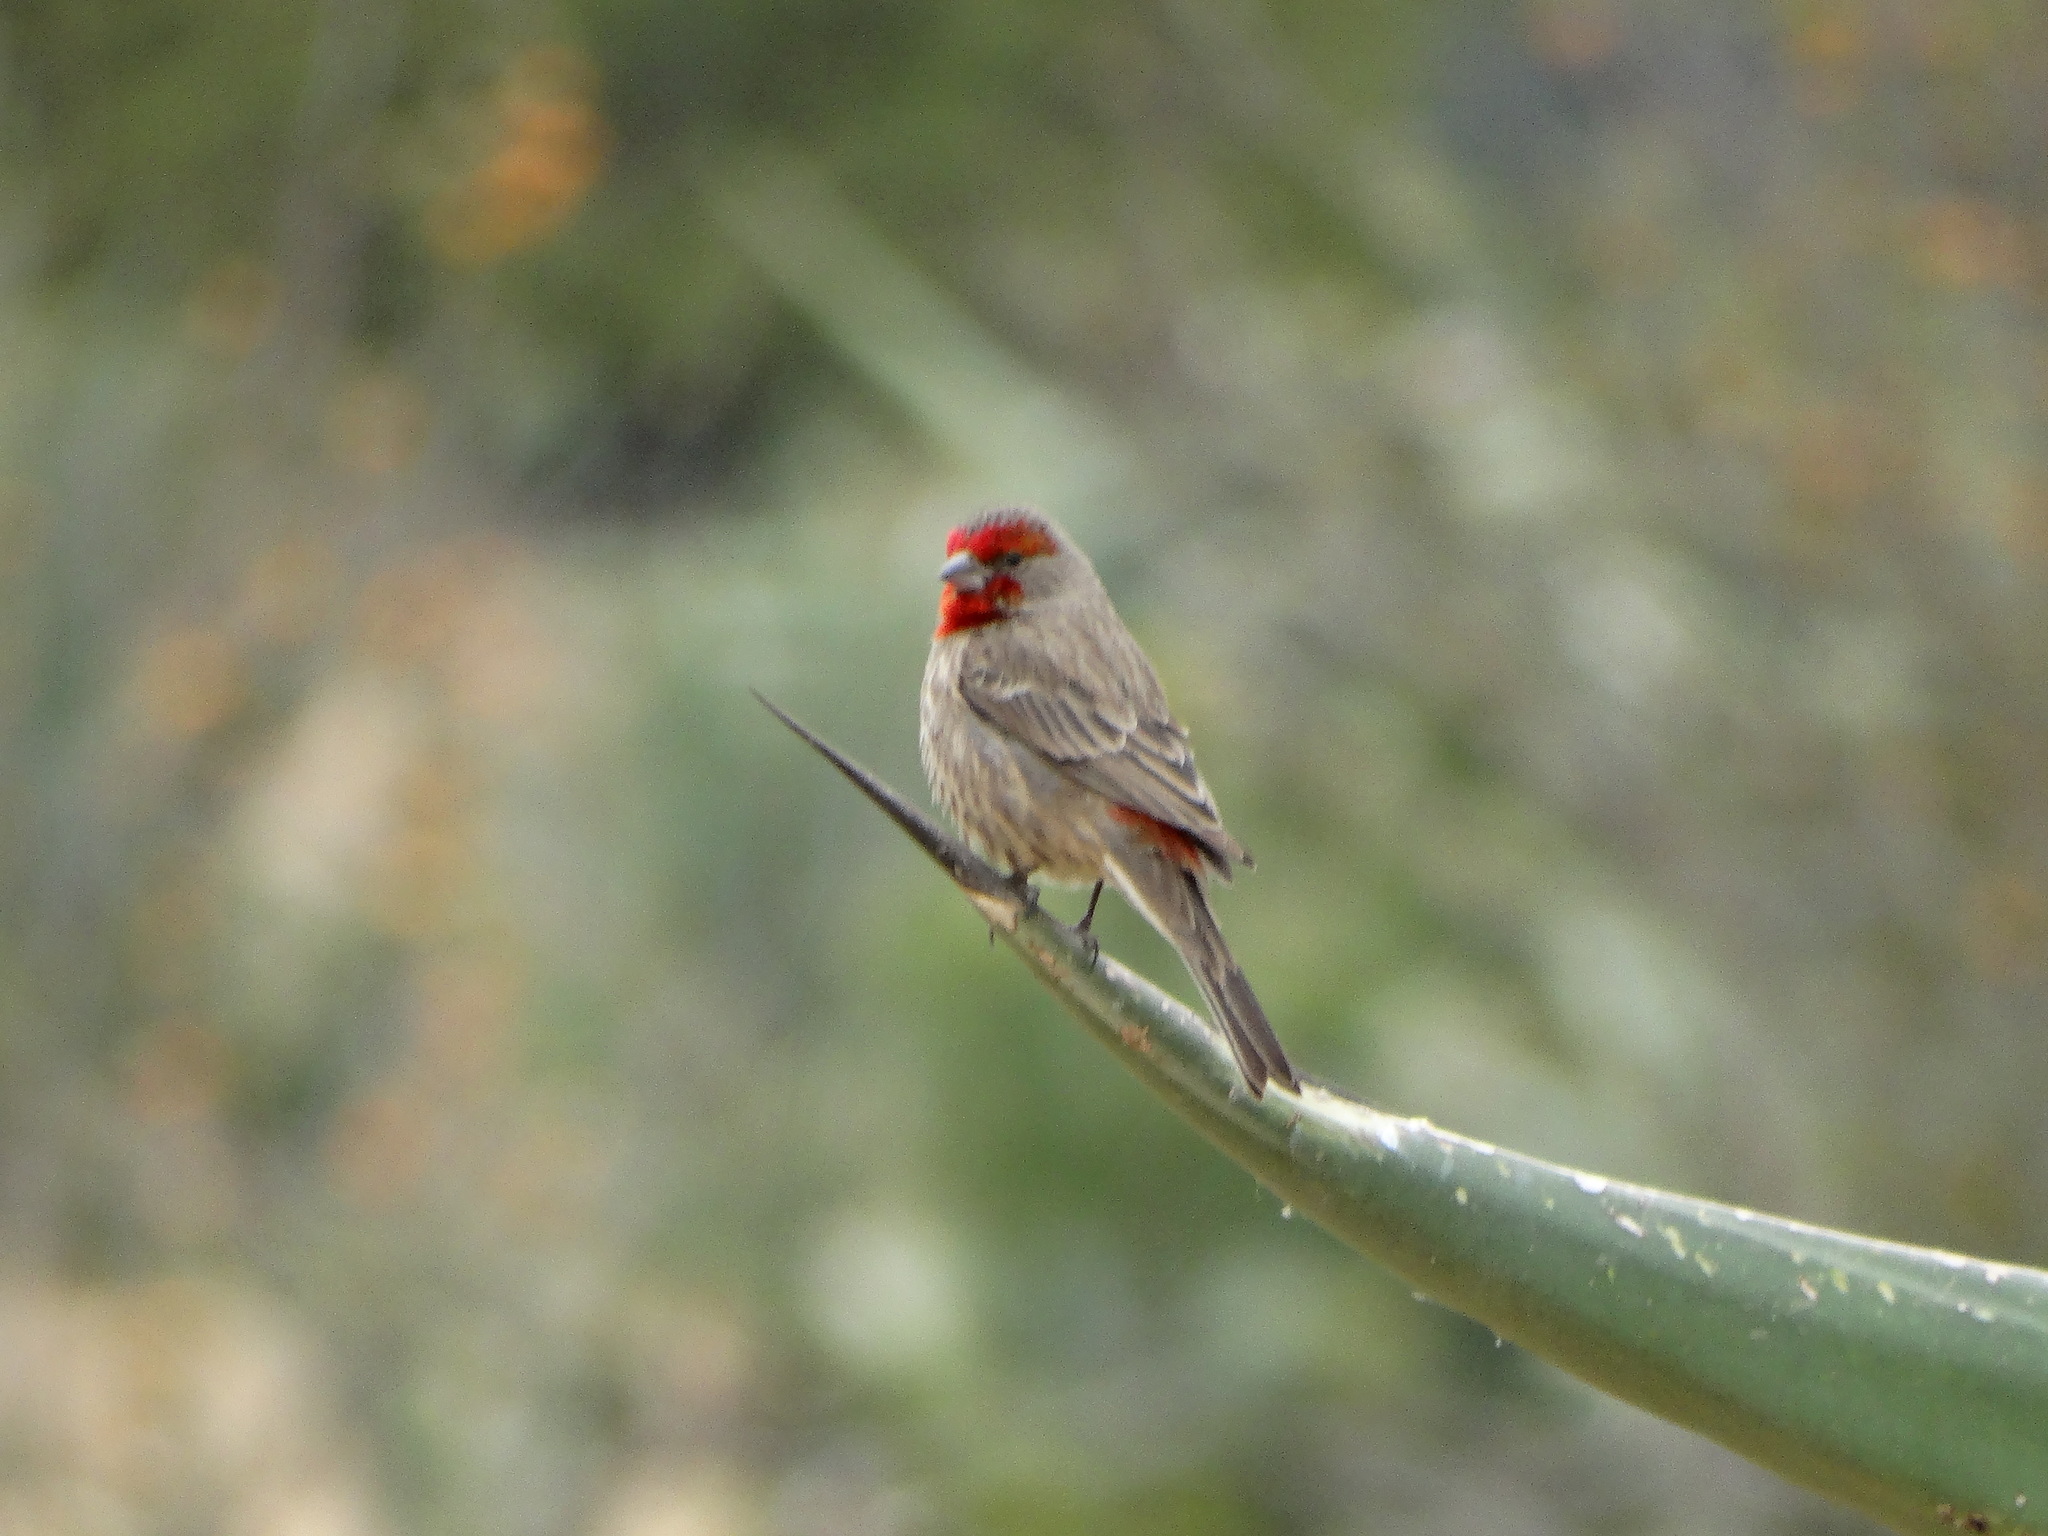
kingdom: Animalia
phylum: Chordata
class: Aves
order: Passeriformes
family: Fringillidae
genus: Haemorhous
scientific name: Haemorhous mexicanus
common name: House finch
